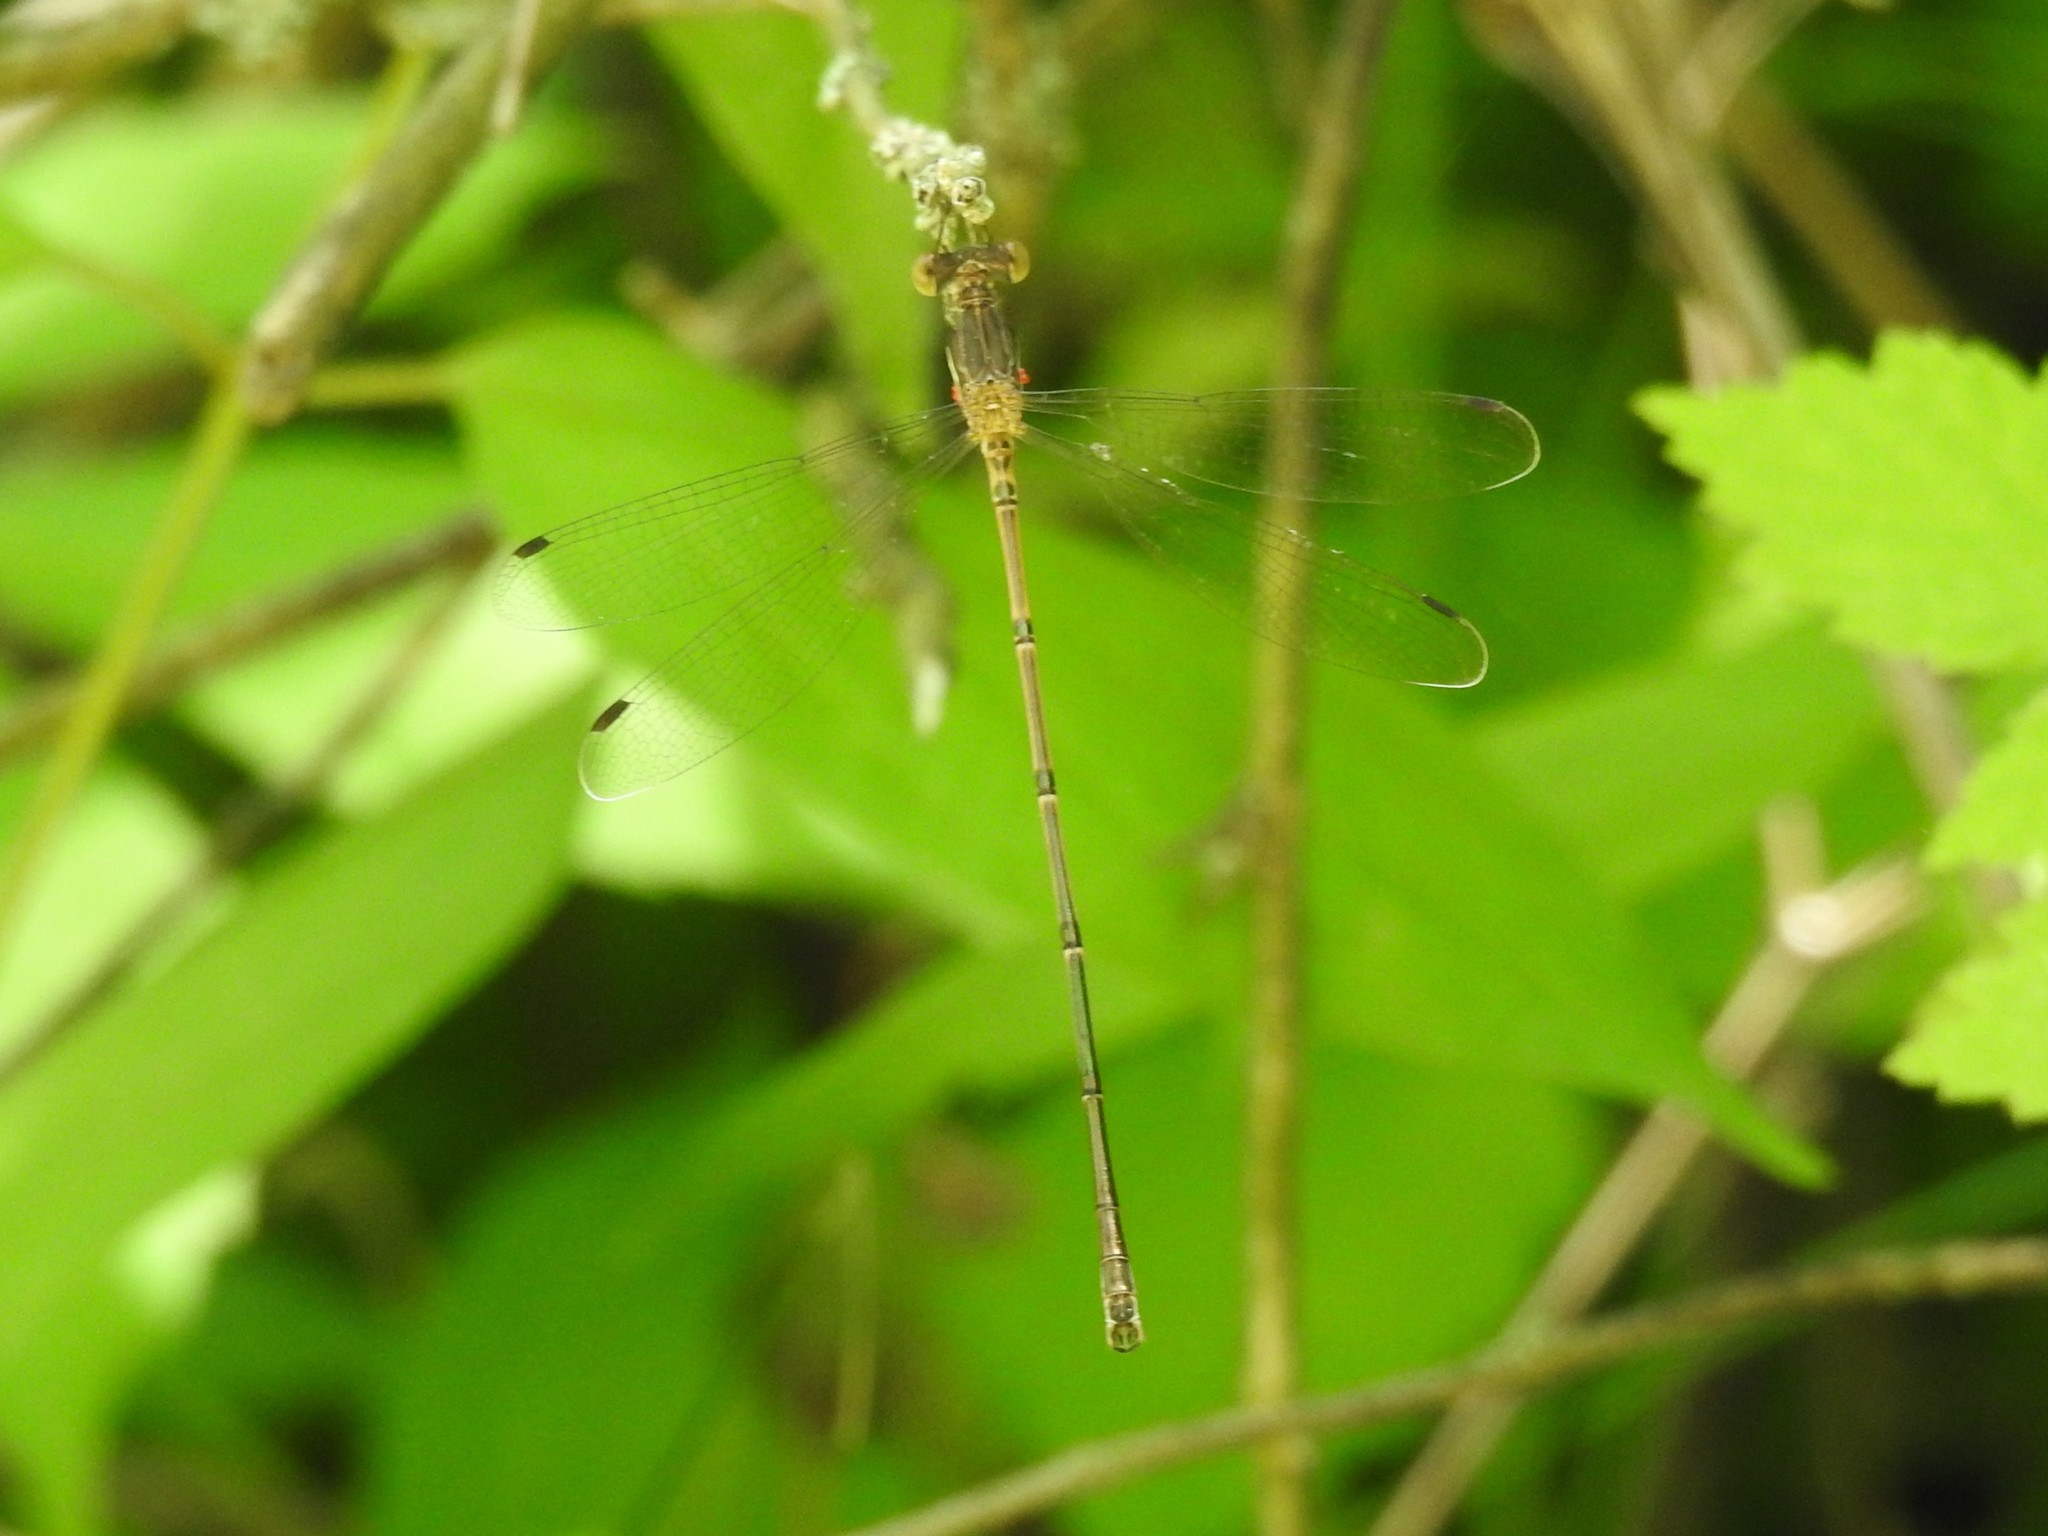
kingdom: Animalia
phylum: Arthropoda
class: Insecta
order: Odonata
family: Lestidae
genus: Lestes
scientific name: Lestes rectangularis
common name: Slender spreadwing
